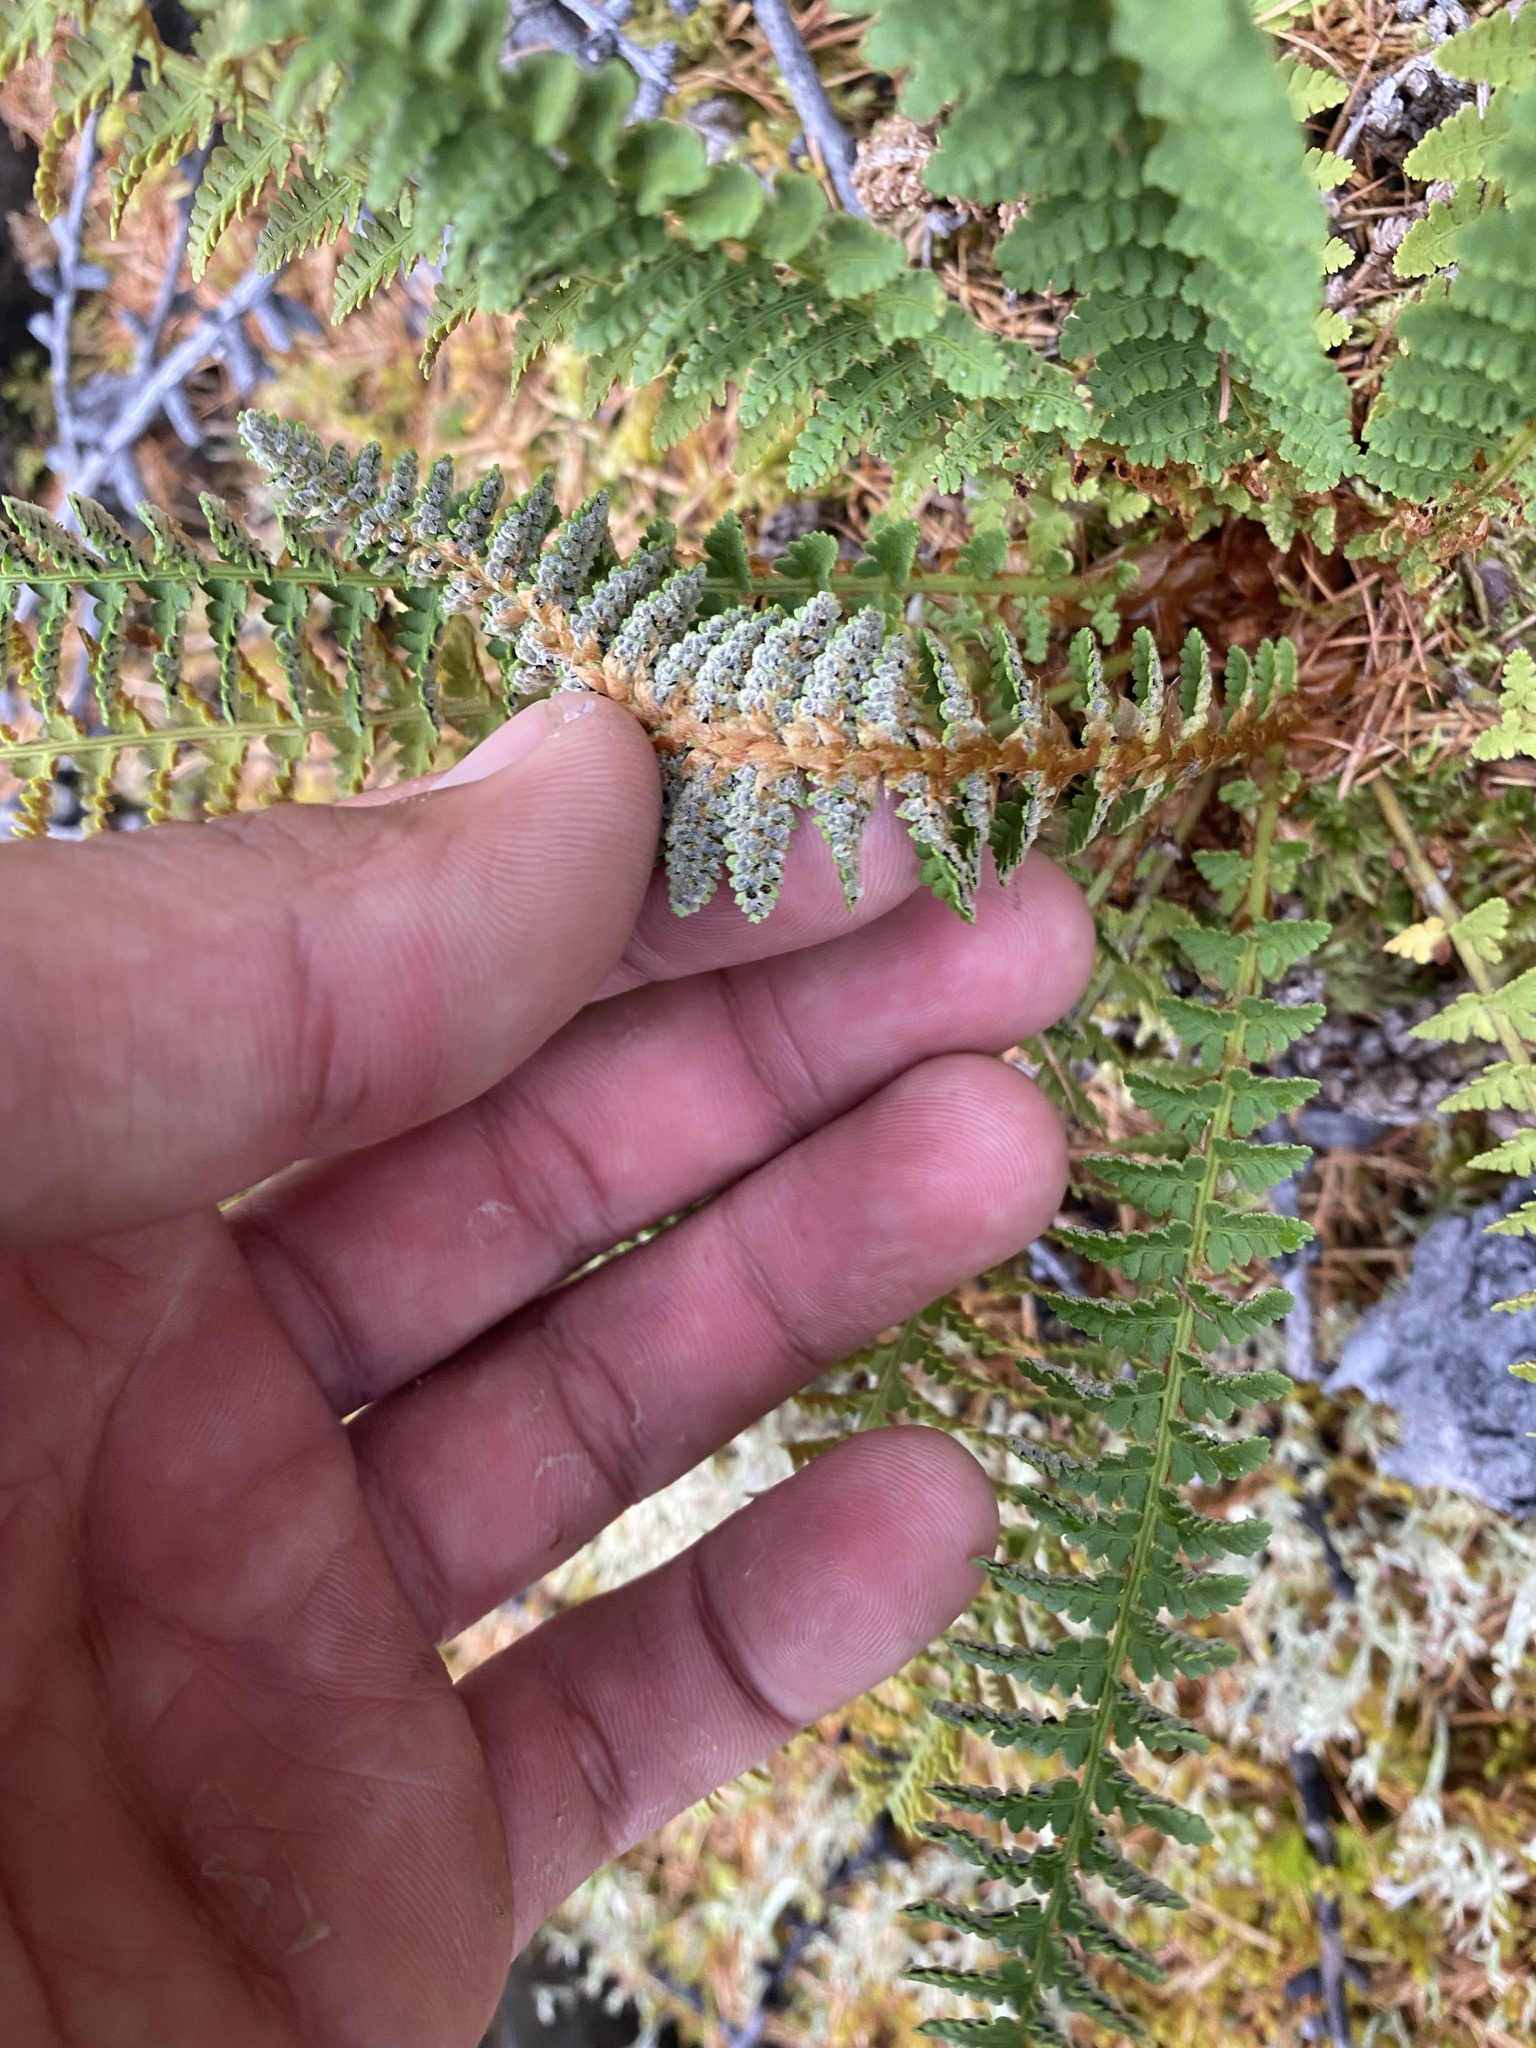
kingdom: Plantae
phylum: Tracheophyta
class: Polypodiopsida
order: Polypodiales
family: Dryopteridaceae
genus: Dryopteris
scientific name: Dryopteris fragrans
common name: Fragrant wood fern
